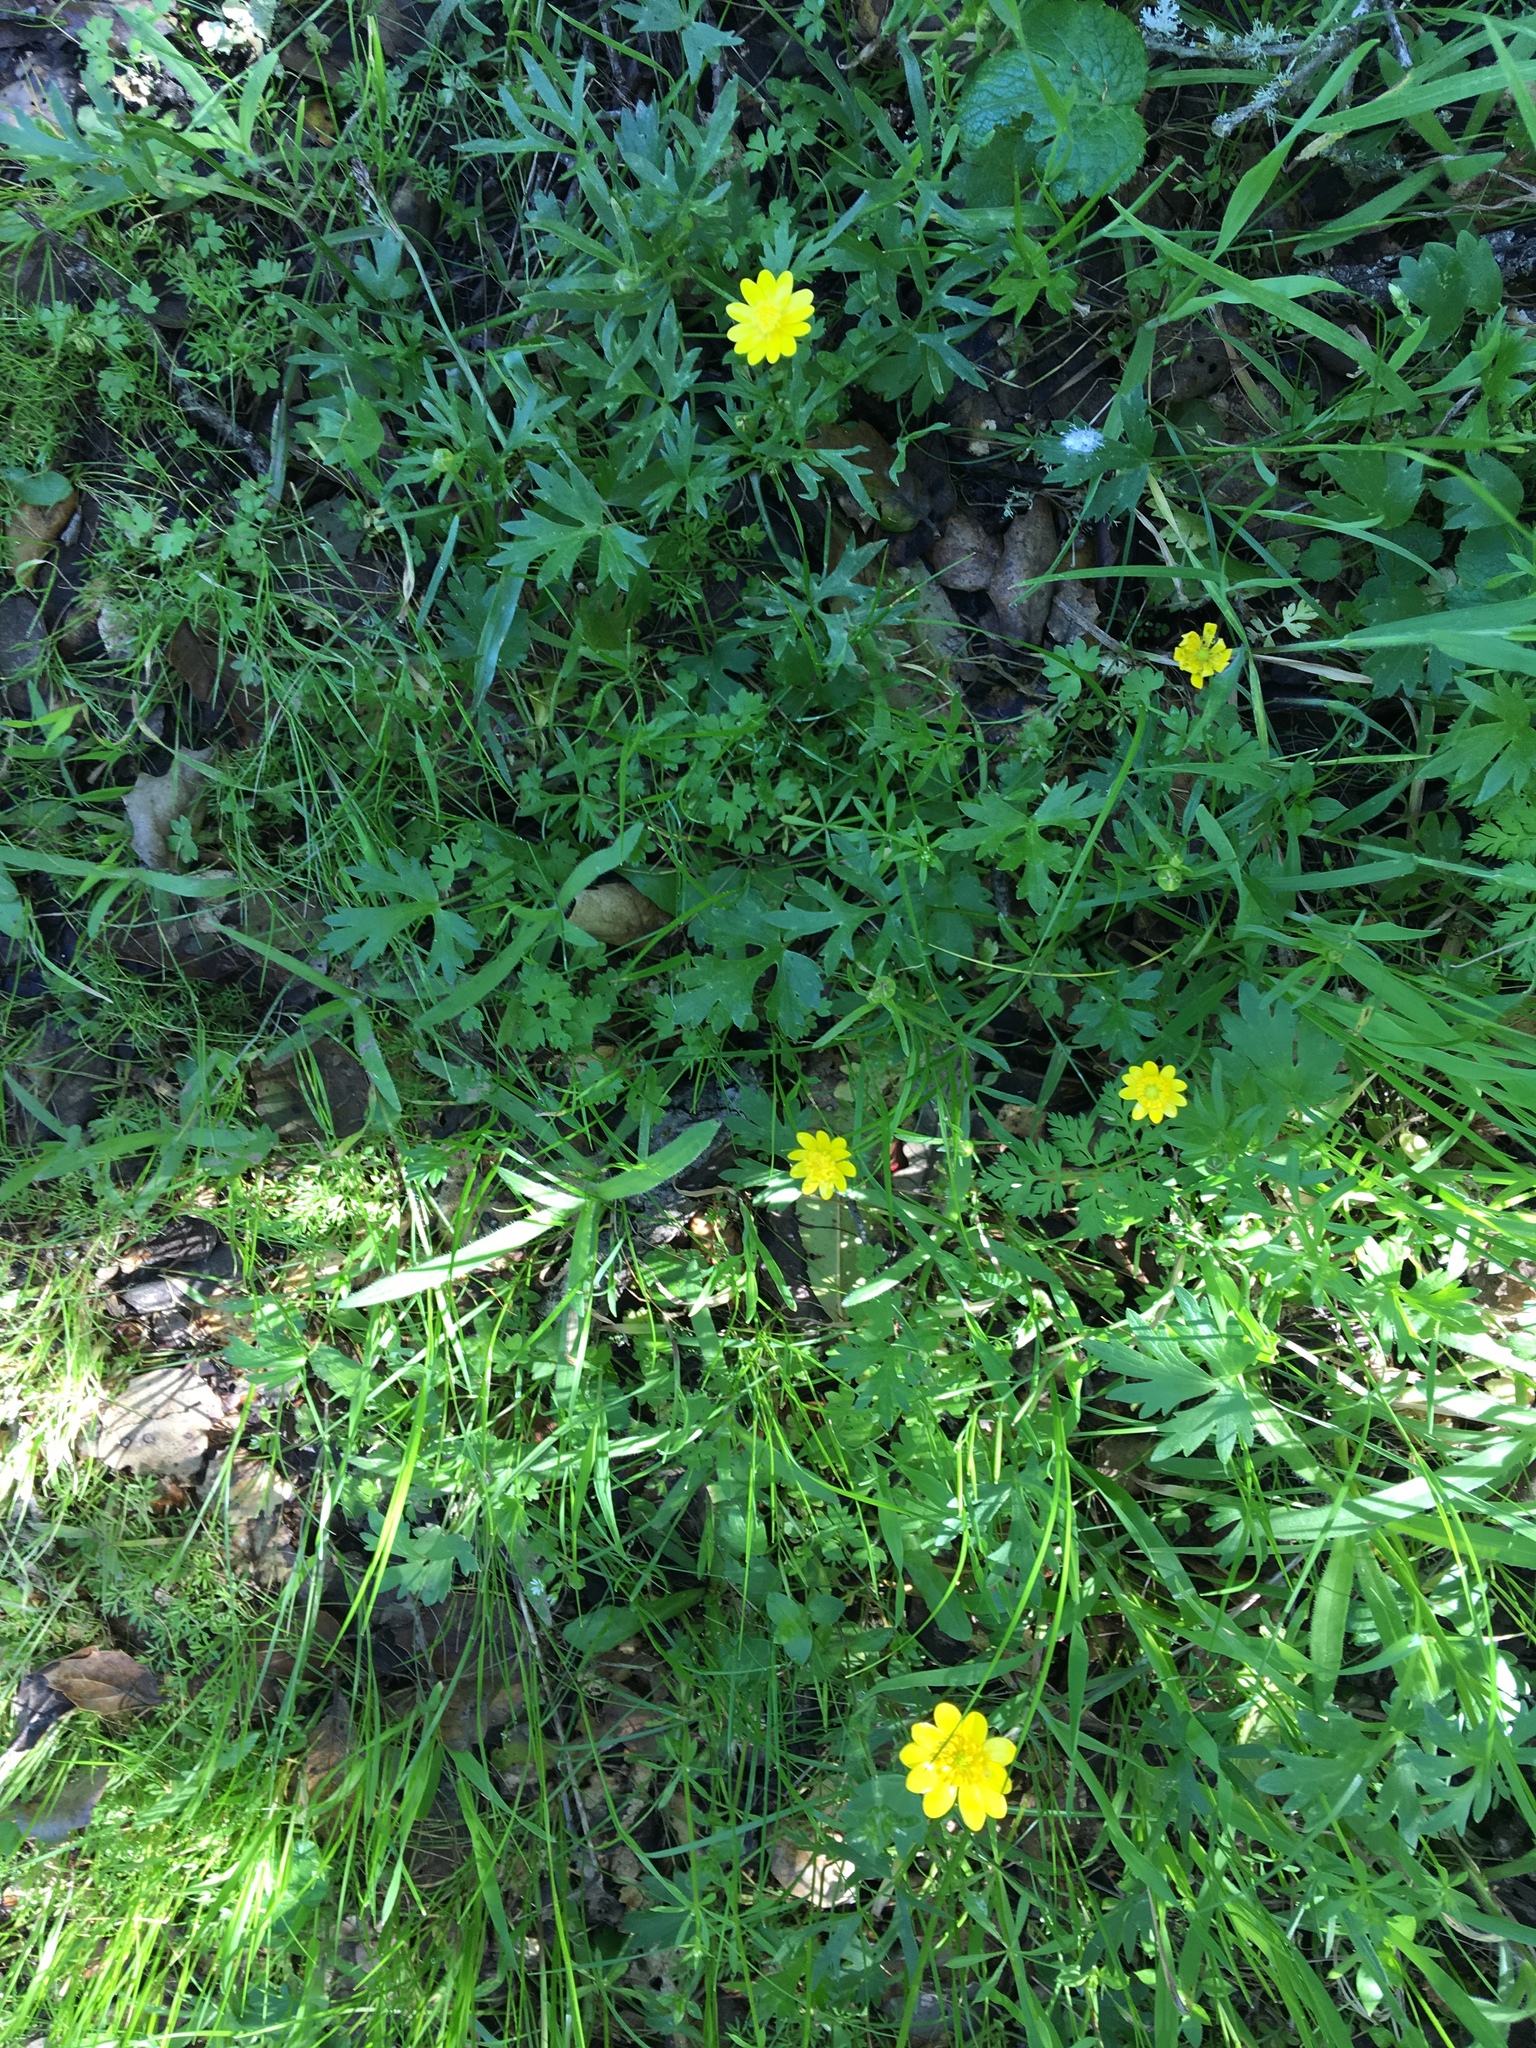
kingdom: Plantae
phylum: Tracheophyta
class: Magnoliopsida
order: Ranunculales
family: Ranunculaceae
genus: Ranunculus
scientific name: Ranunculus californicus
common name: California buttercup
